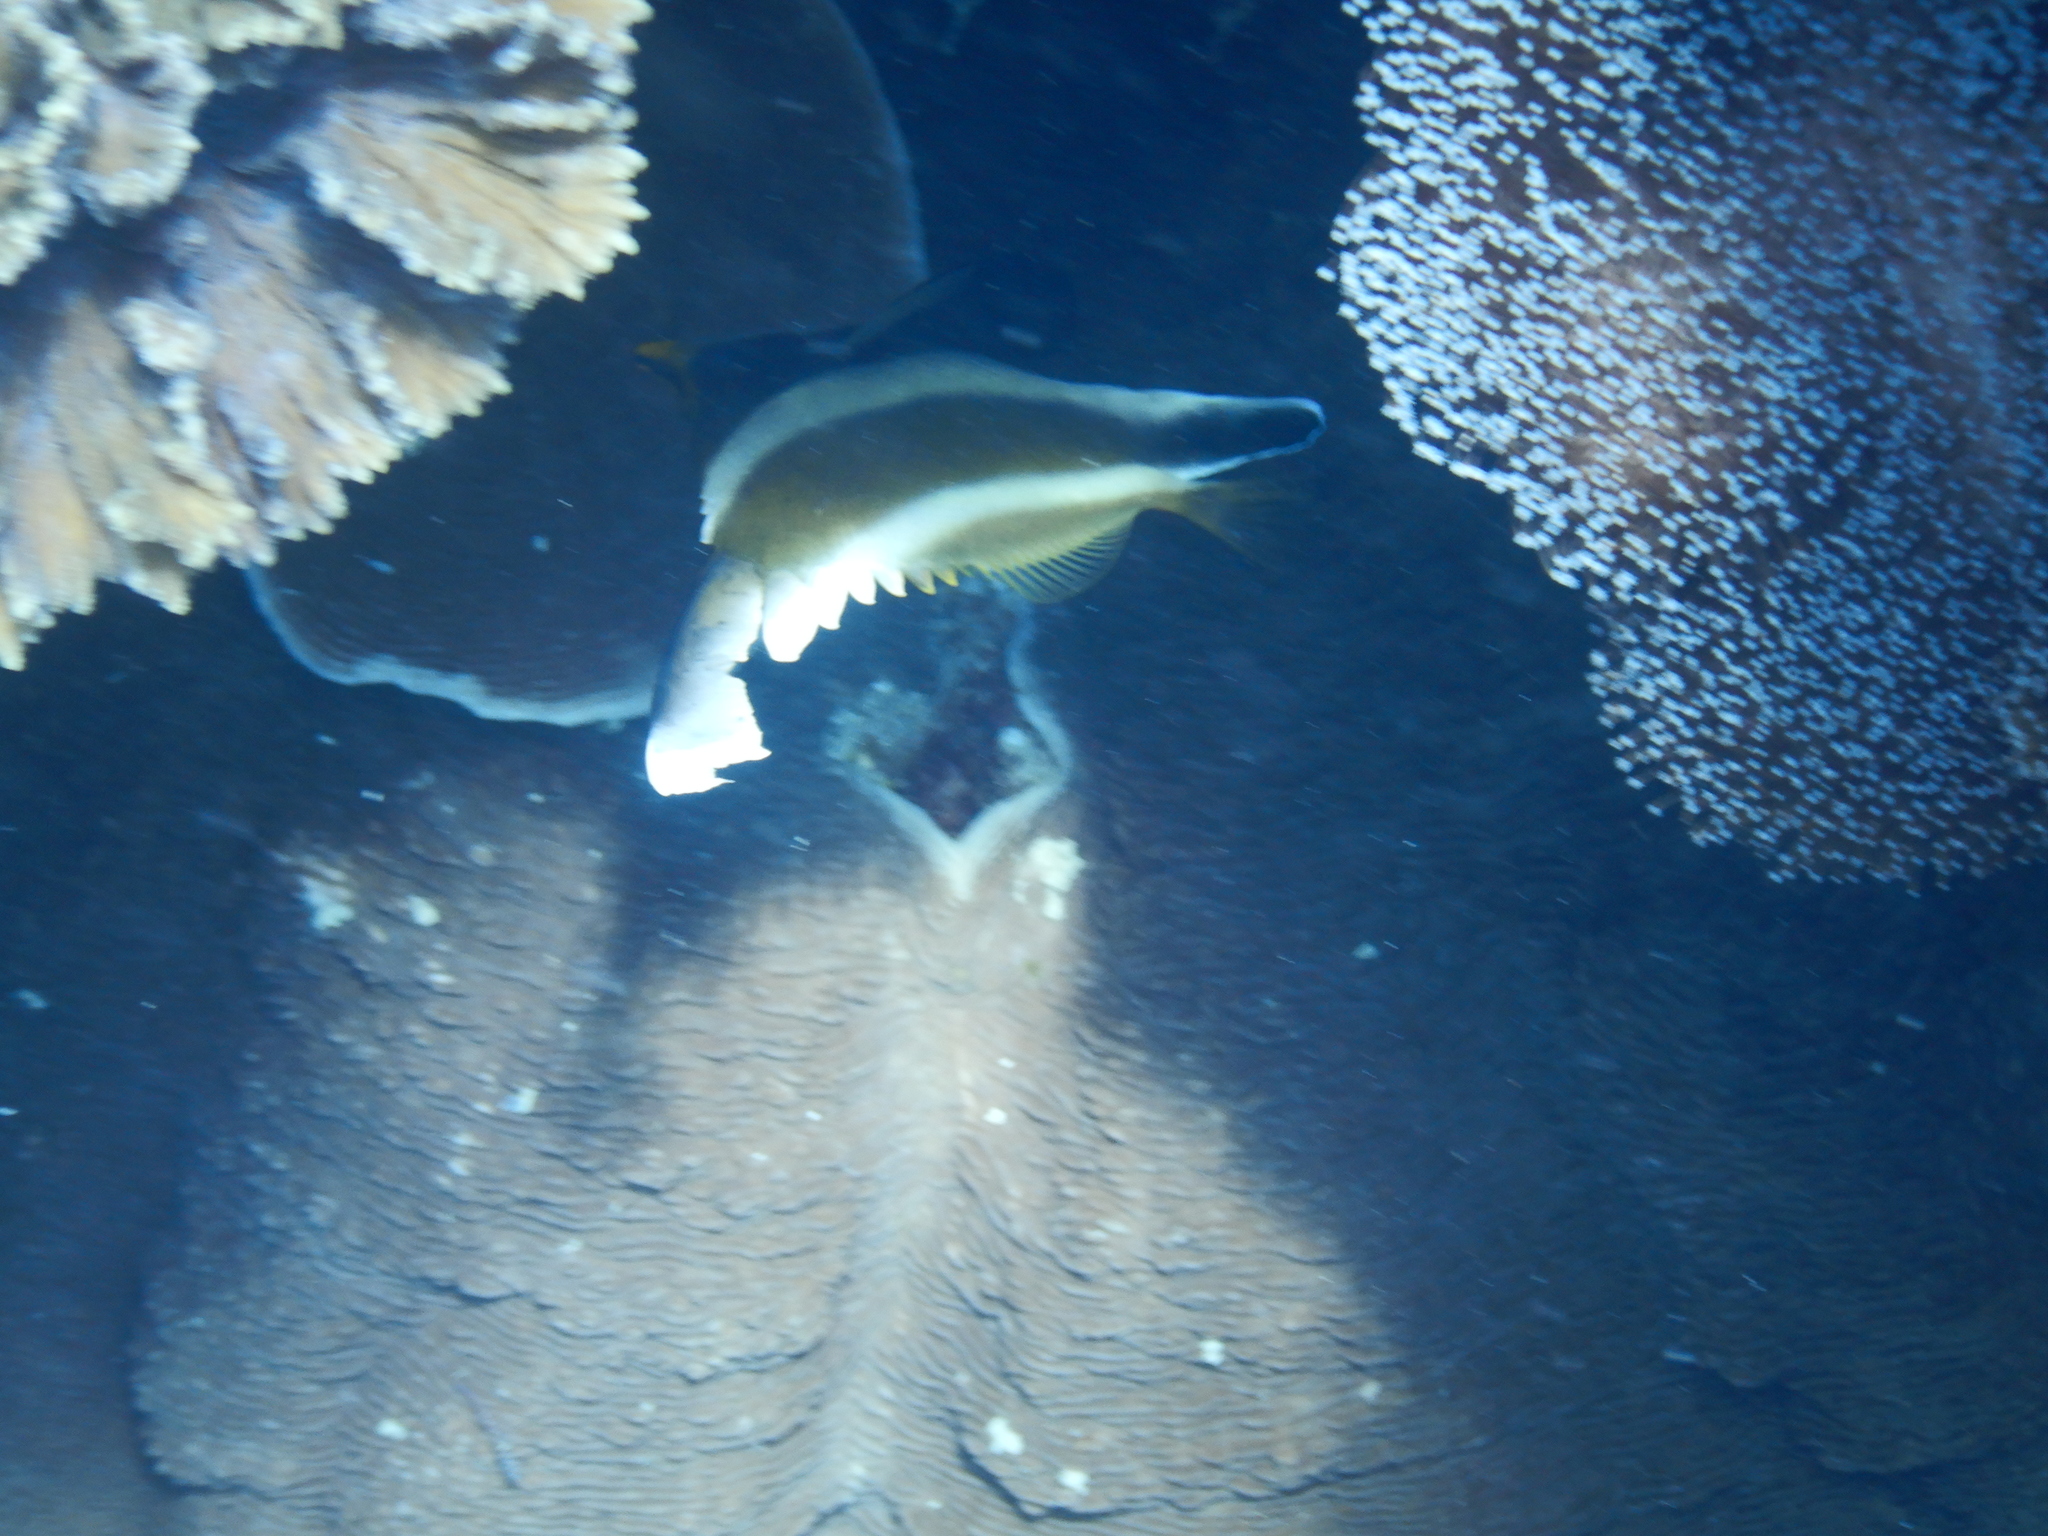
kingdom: Animalia
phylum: Chordata
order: Perciformes
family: Chaetodontidae
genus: Heniochus
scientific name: Heniochus chrysostomus
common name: Horned bannerfish
